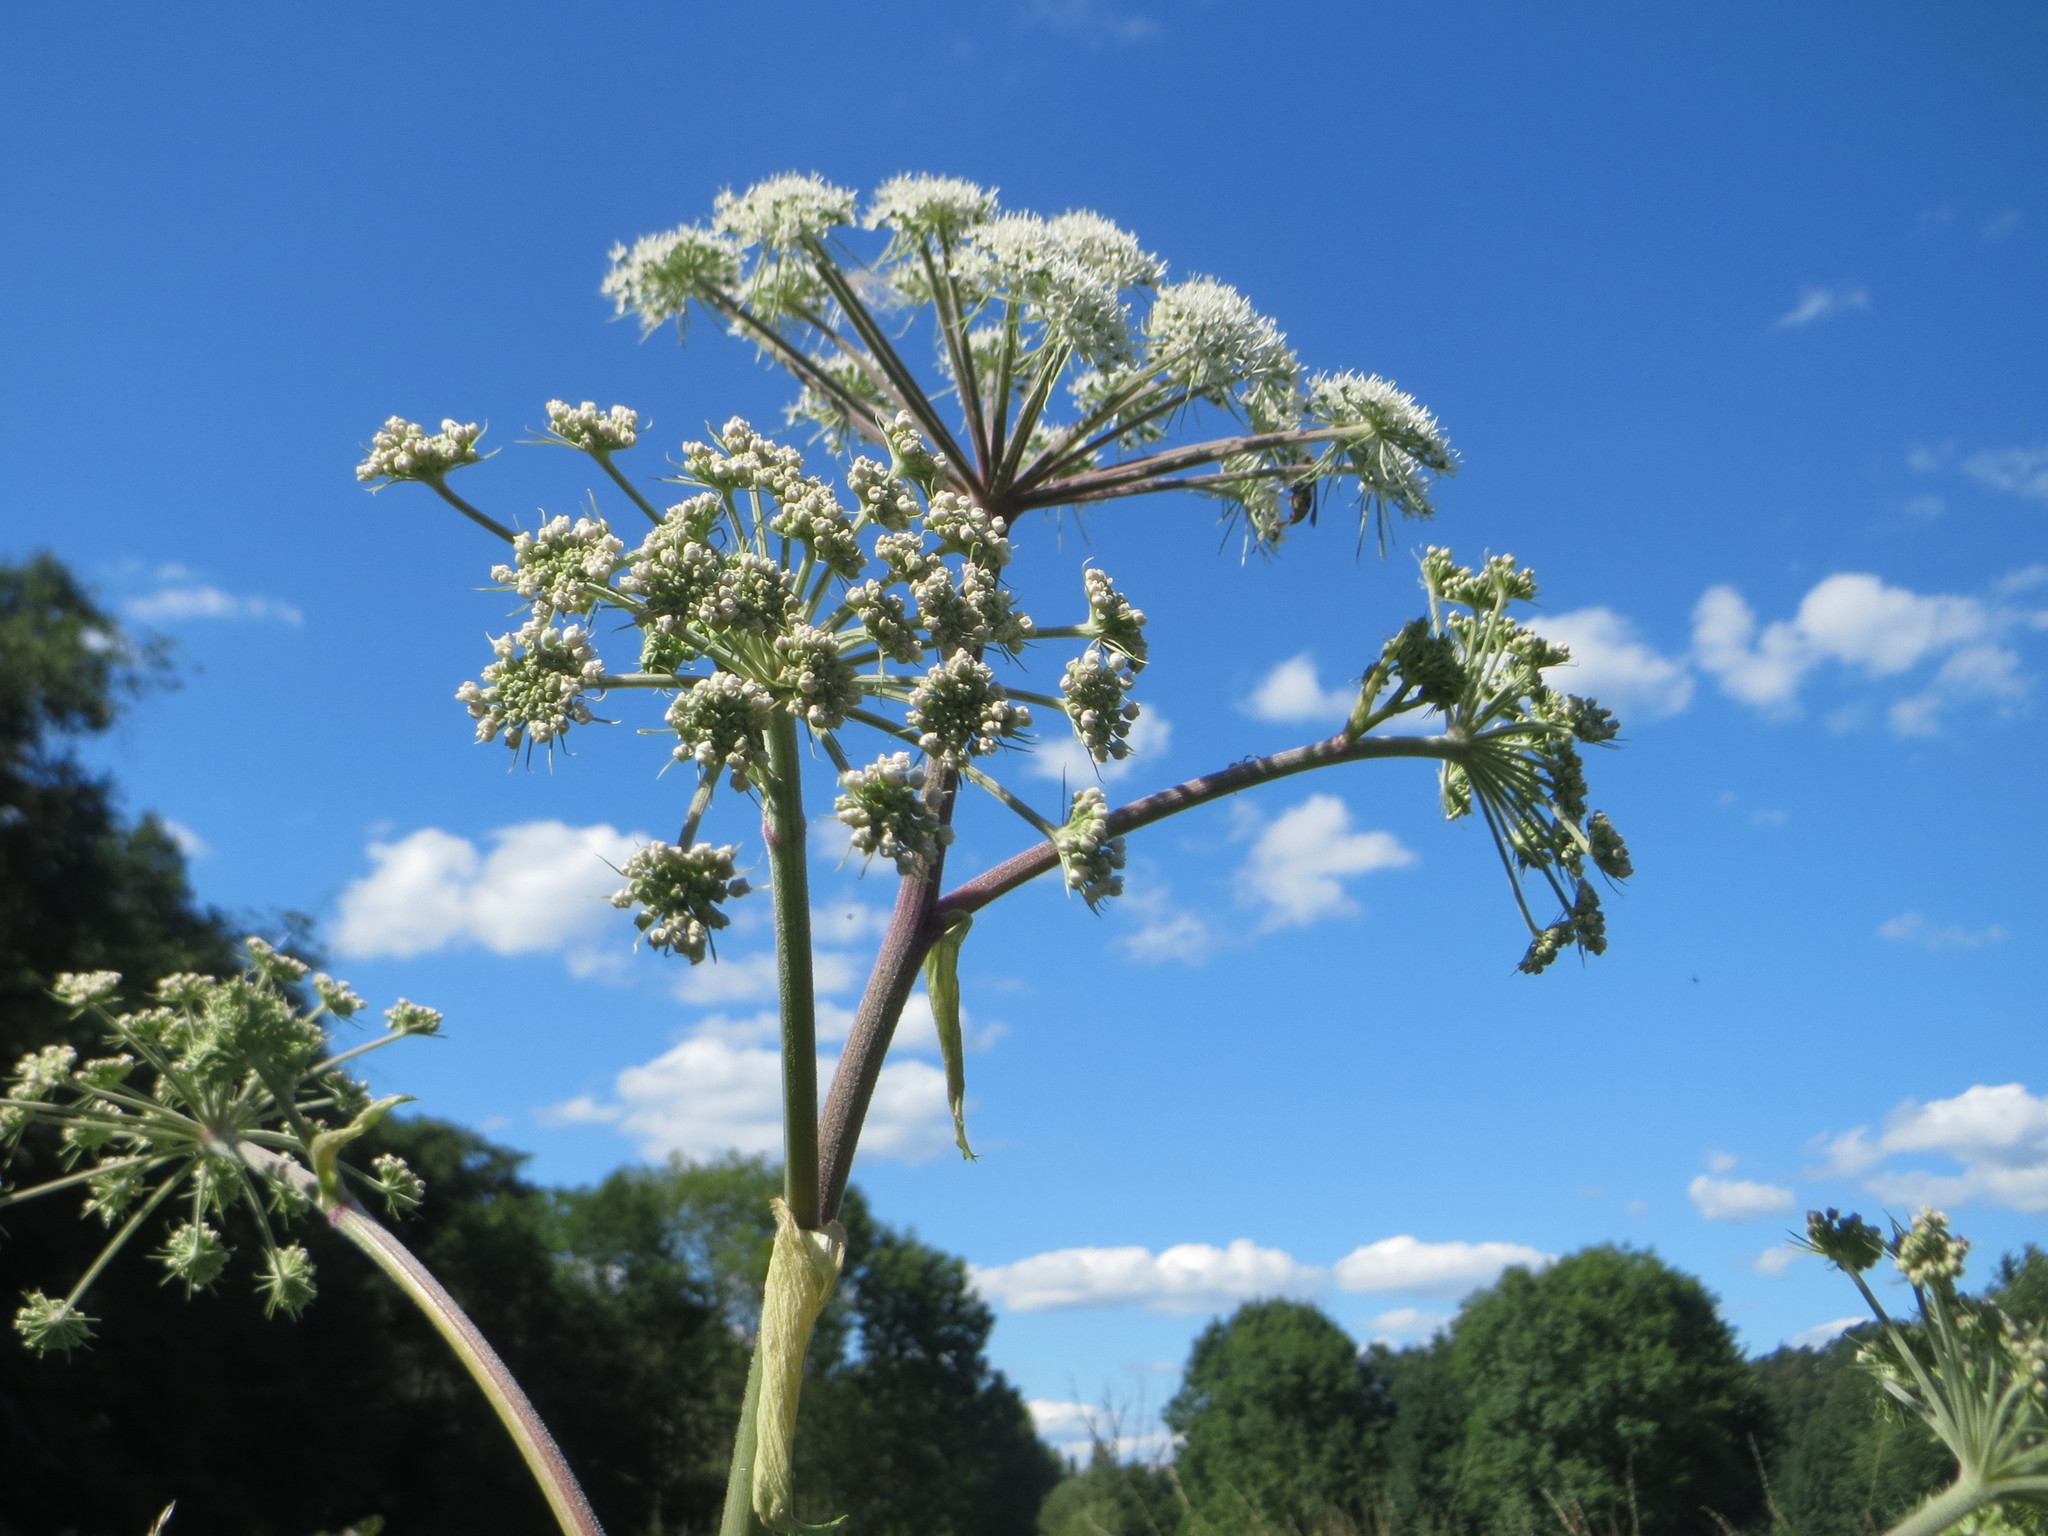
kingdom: Plantae
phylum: Tracheophyta
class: Magnoliopsida
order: Apiales
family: Apiaceae
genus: Angelica
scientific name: Angelica sylvestris
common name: Wild angelica
